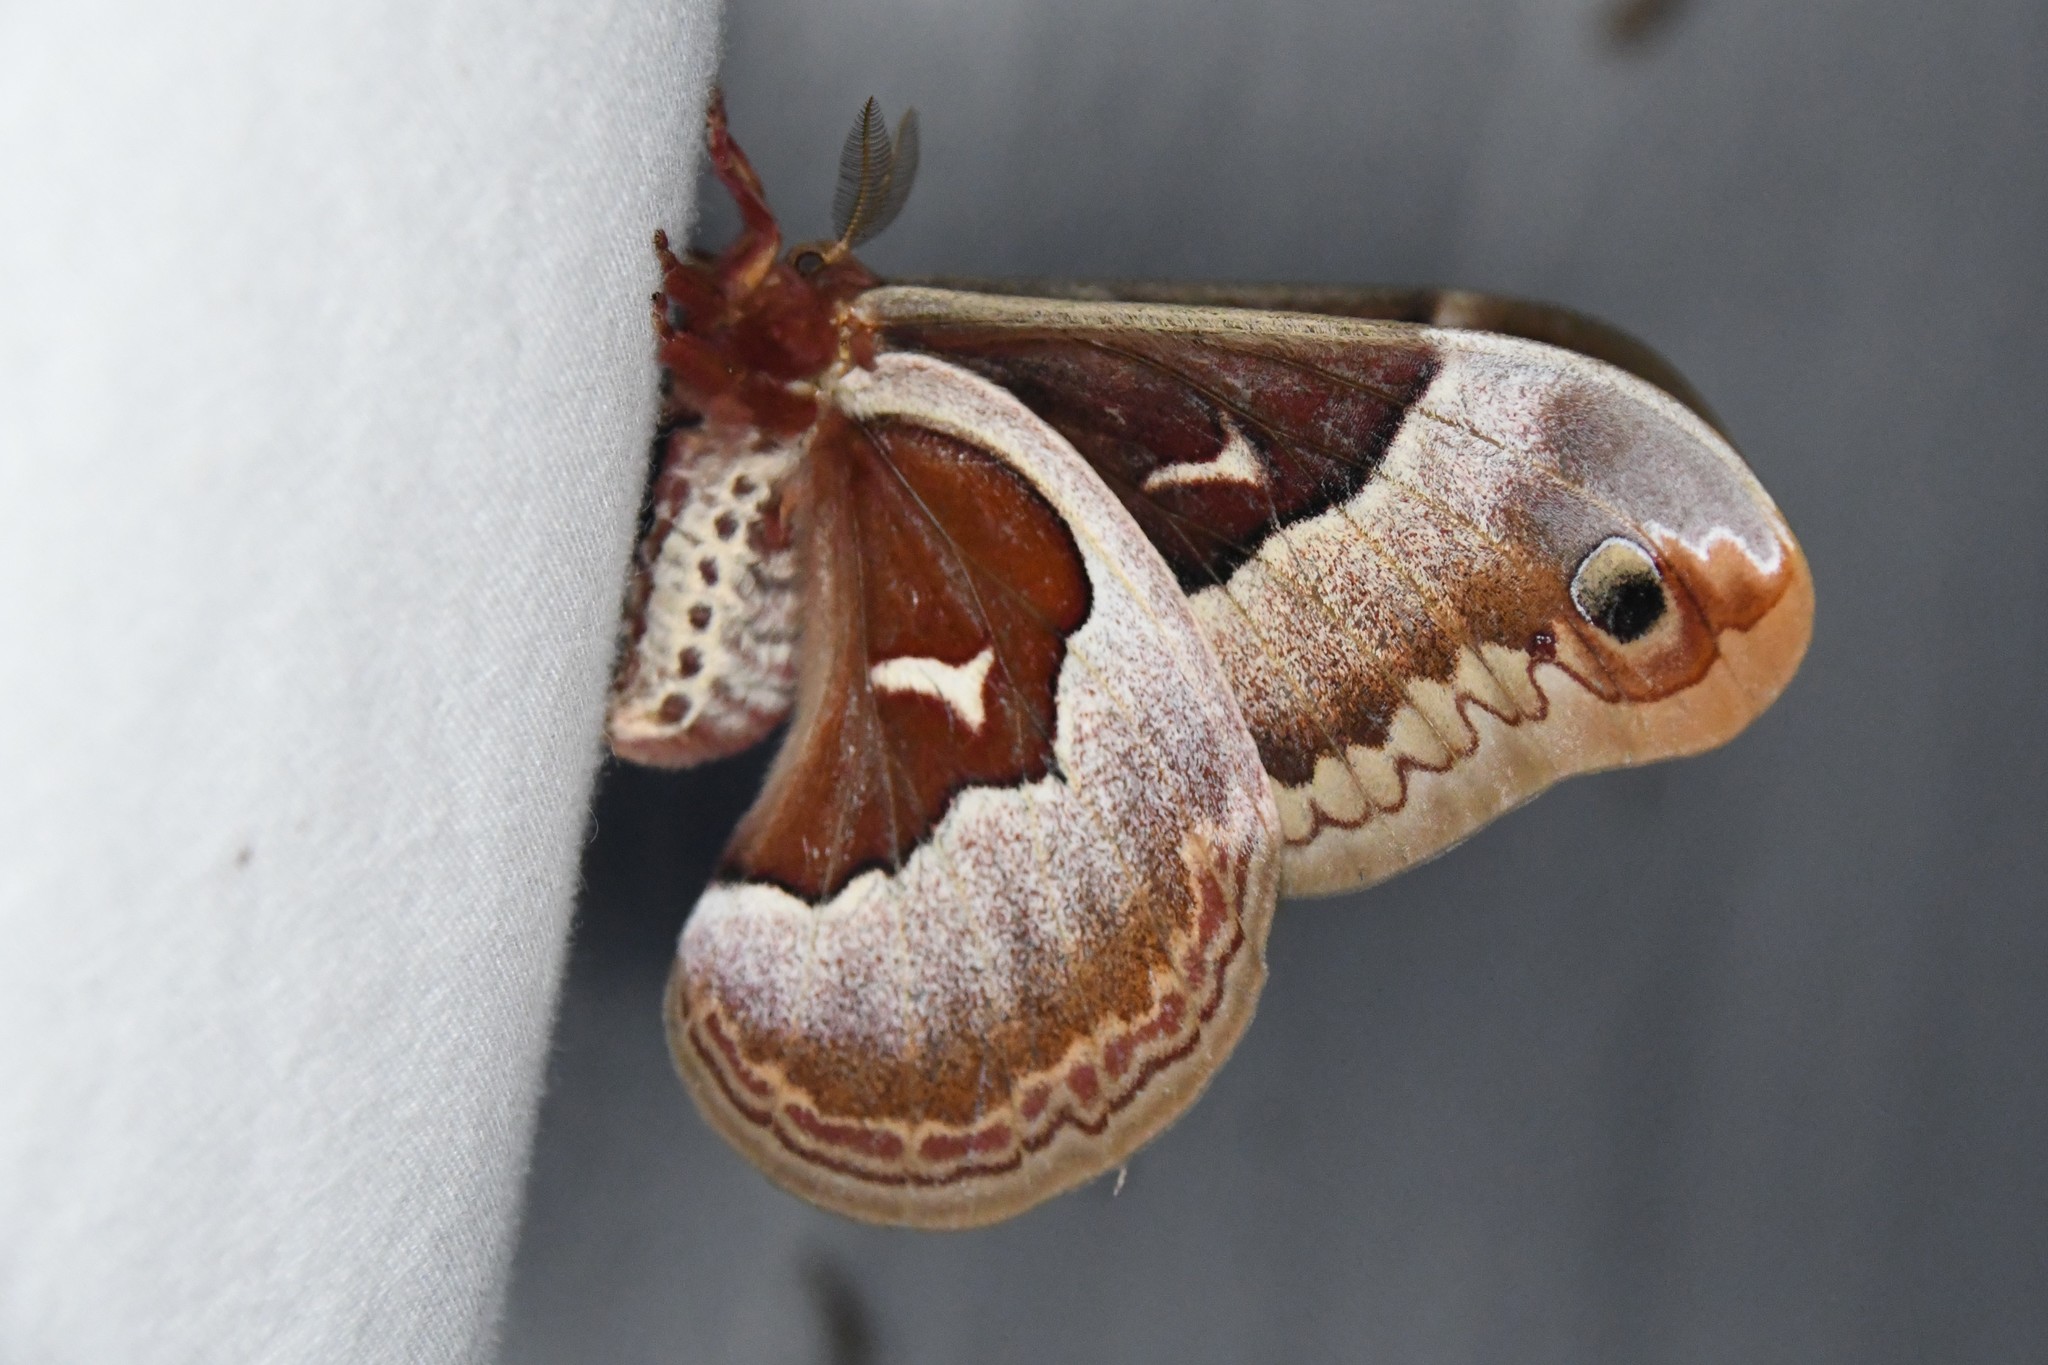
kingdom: Animalia
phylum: Arthropoda
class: Insecta
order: Lepidoptera
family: Saturniidae
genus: Callosamia
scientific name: Callosamia promethea
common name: Promethea silkmoth
